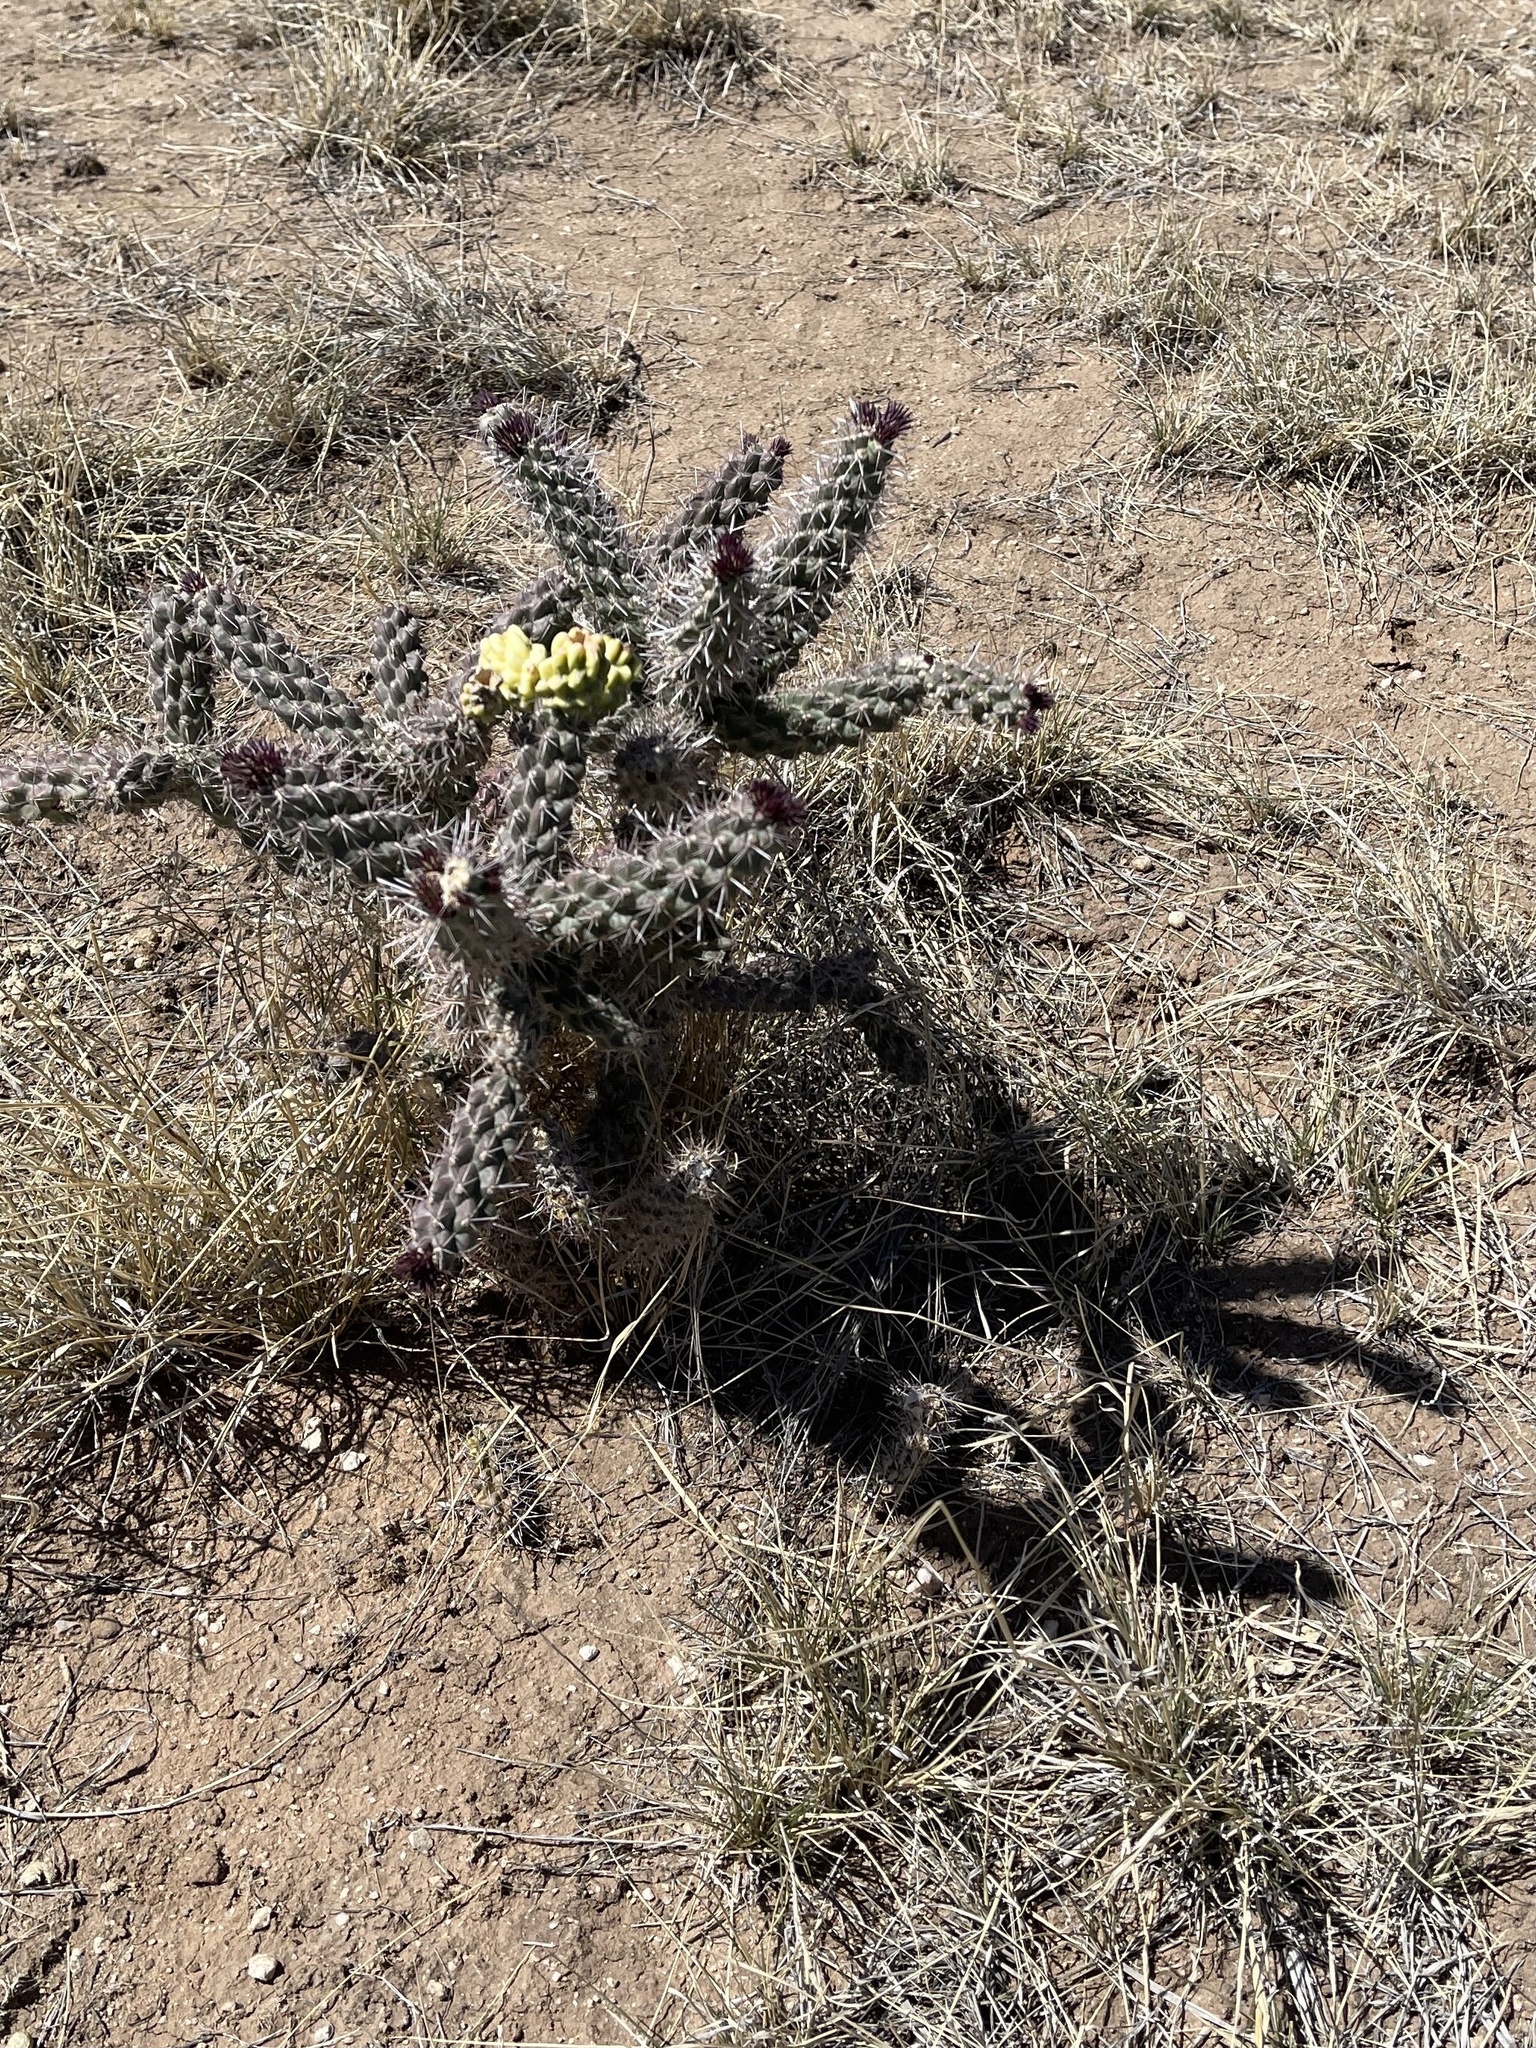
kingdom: Plantae
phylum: Tracheophyta
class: Magnoliopsida
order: Caryophyllales
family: Cactaceae
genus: Cylindropuntia
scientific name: Cylindropuntia imbricata
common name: Candelabrum cactus
